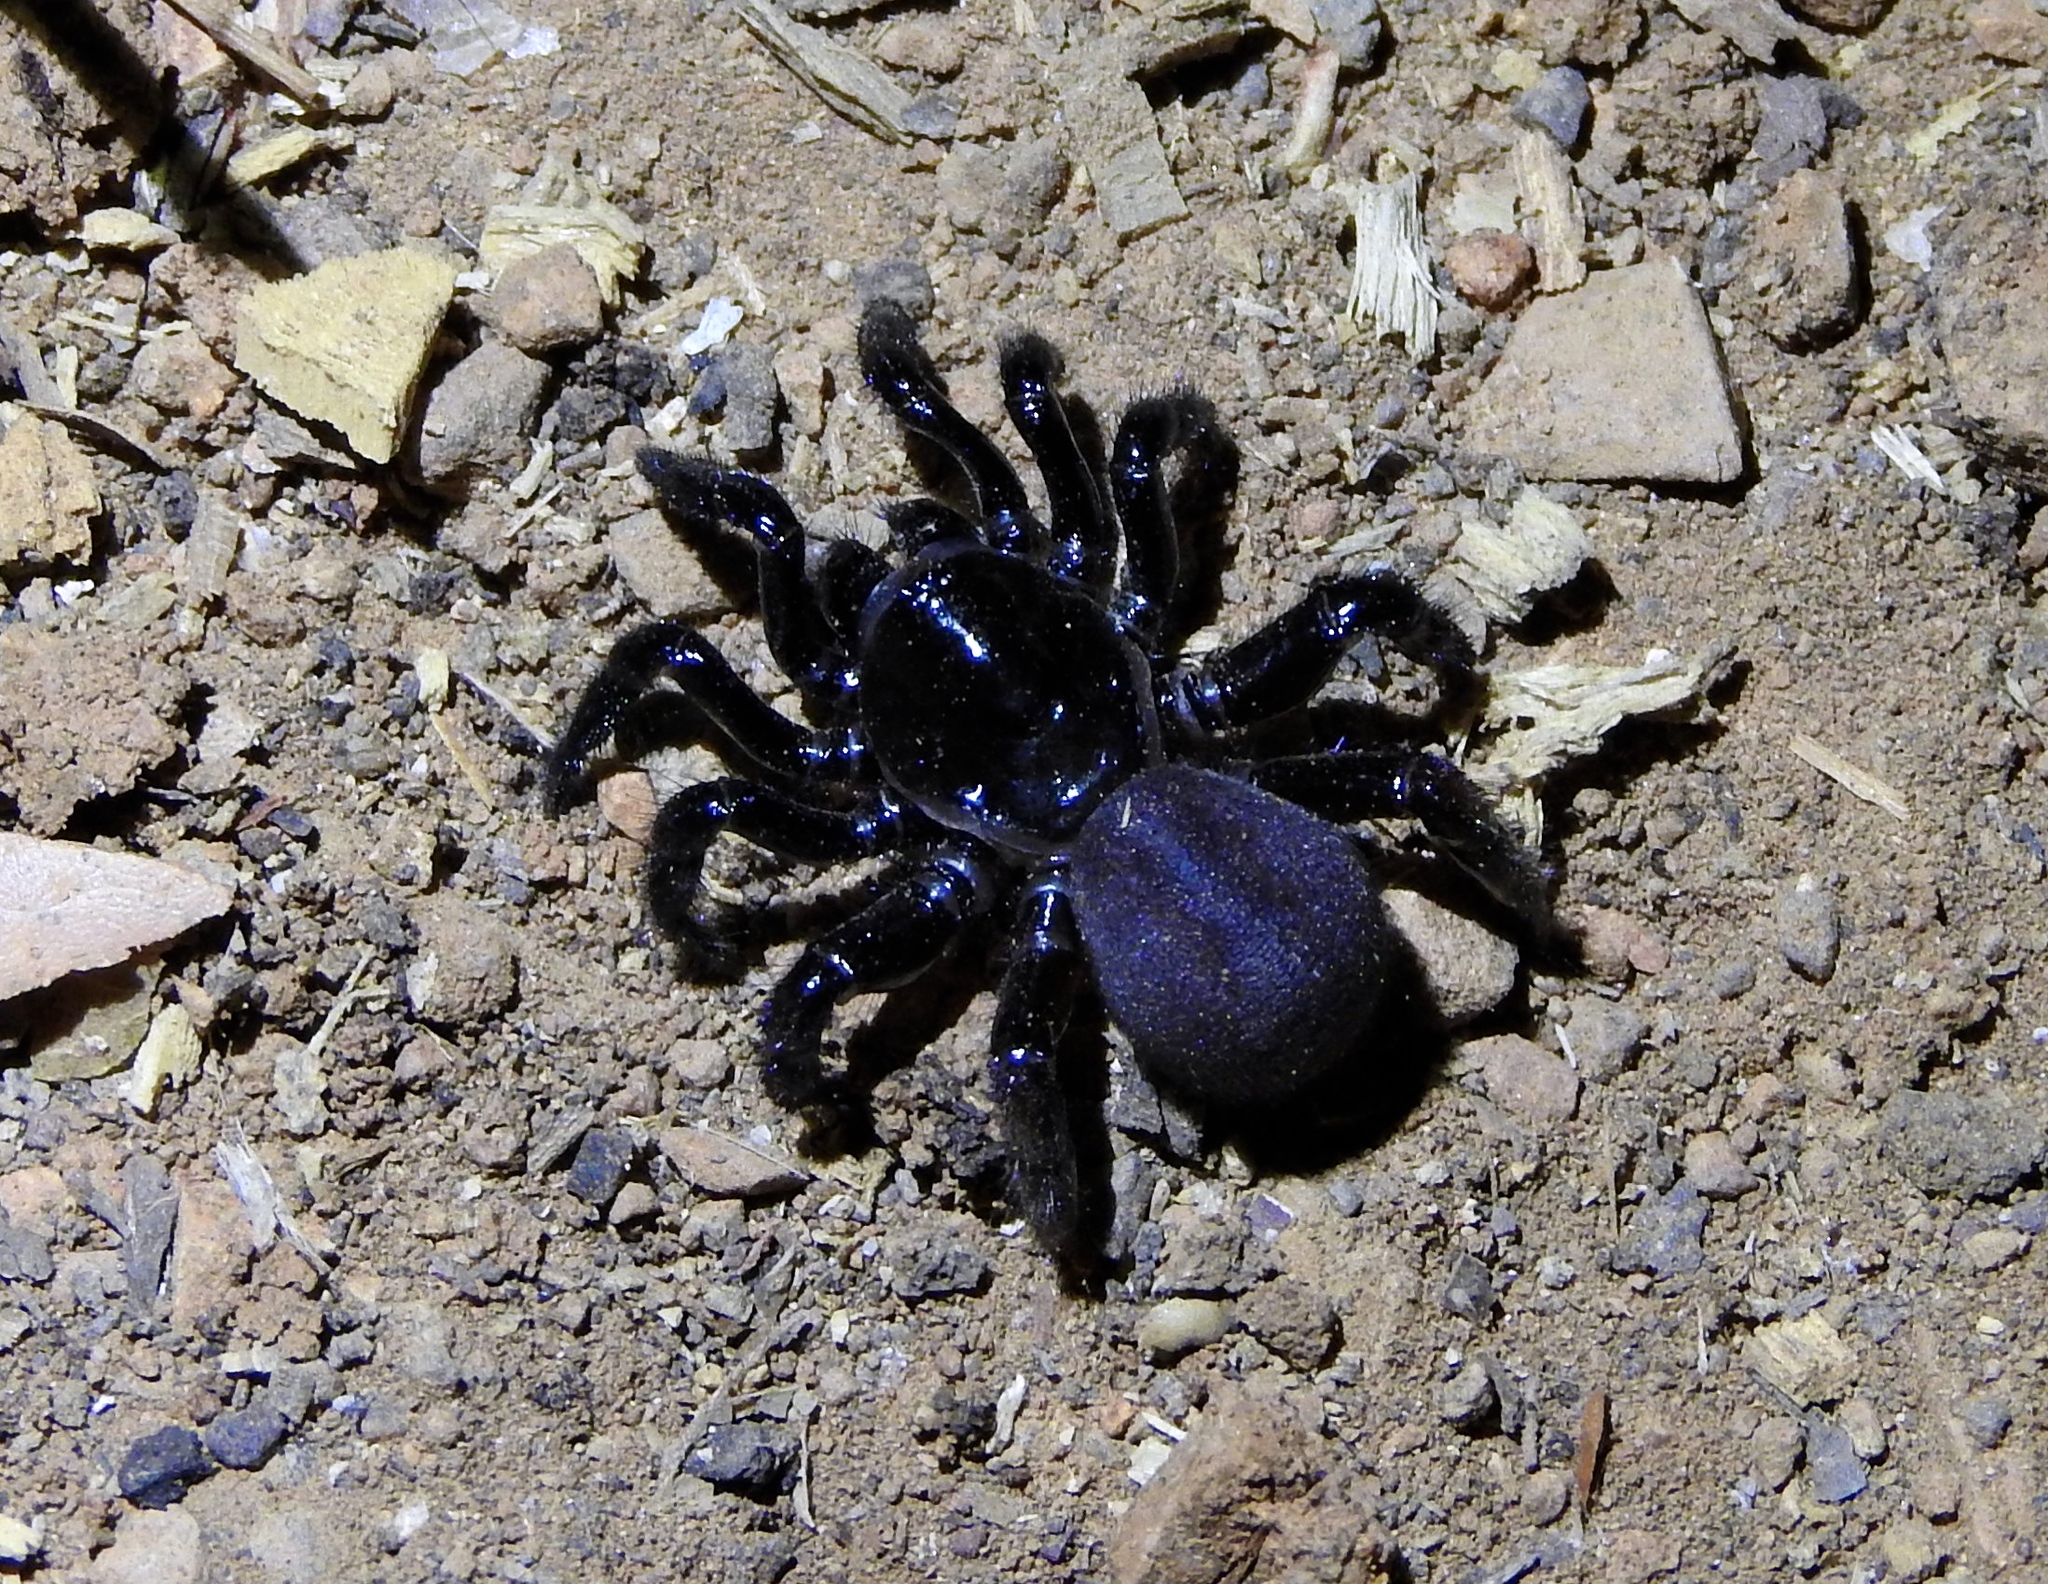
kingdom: Animalia
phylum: Arthropoda
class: Arachnida
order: Araneae
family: Halonoproctidae
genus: Ummidia
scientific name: Ummidia
